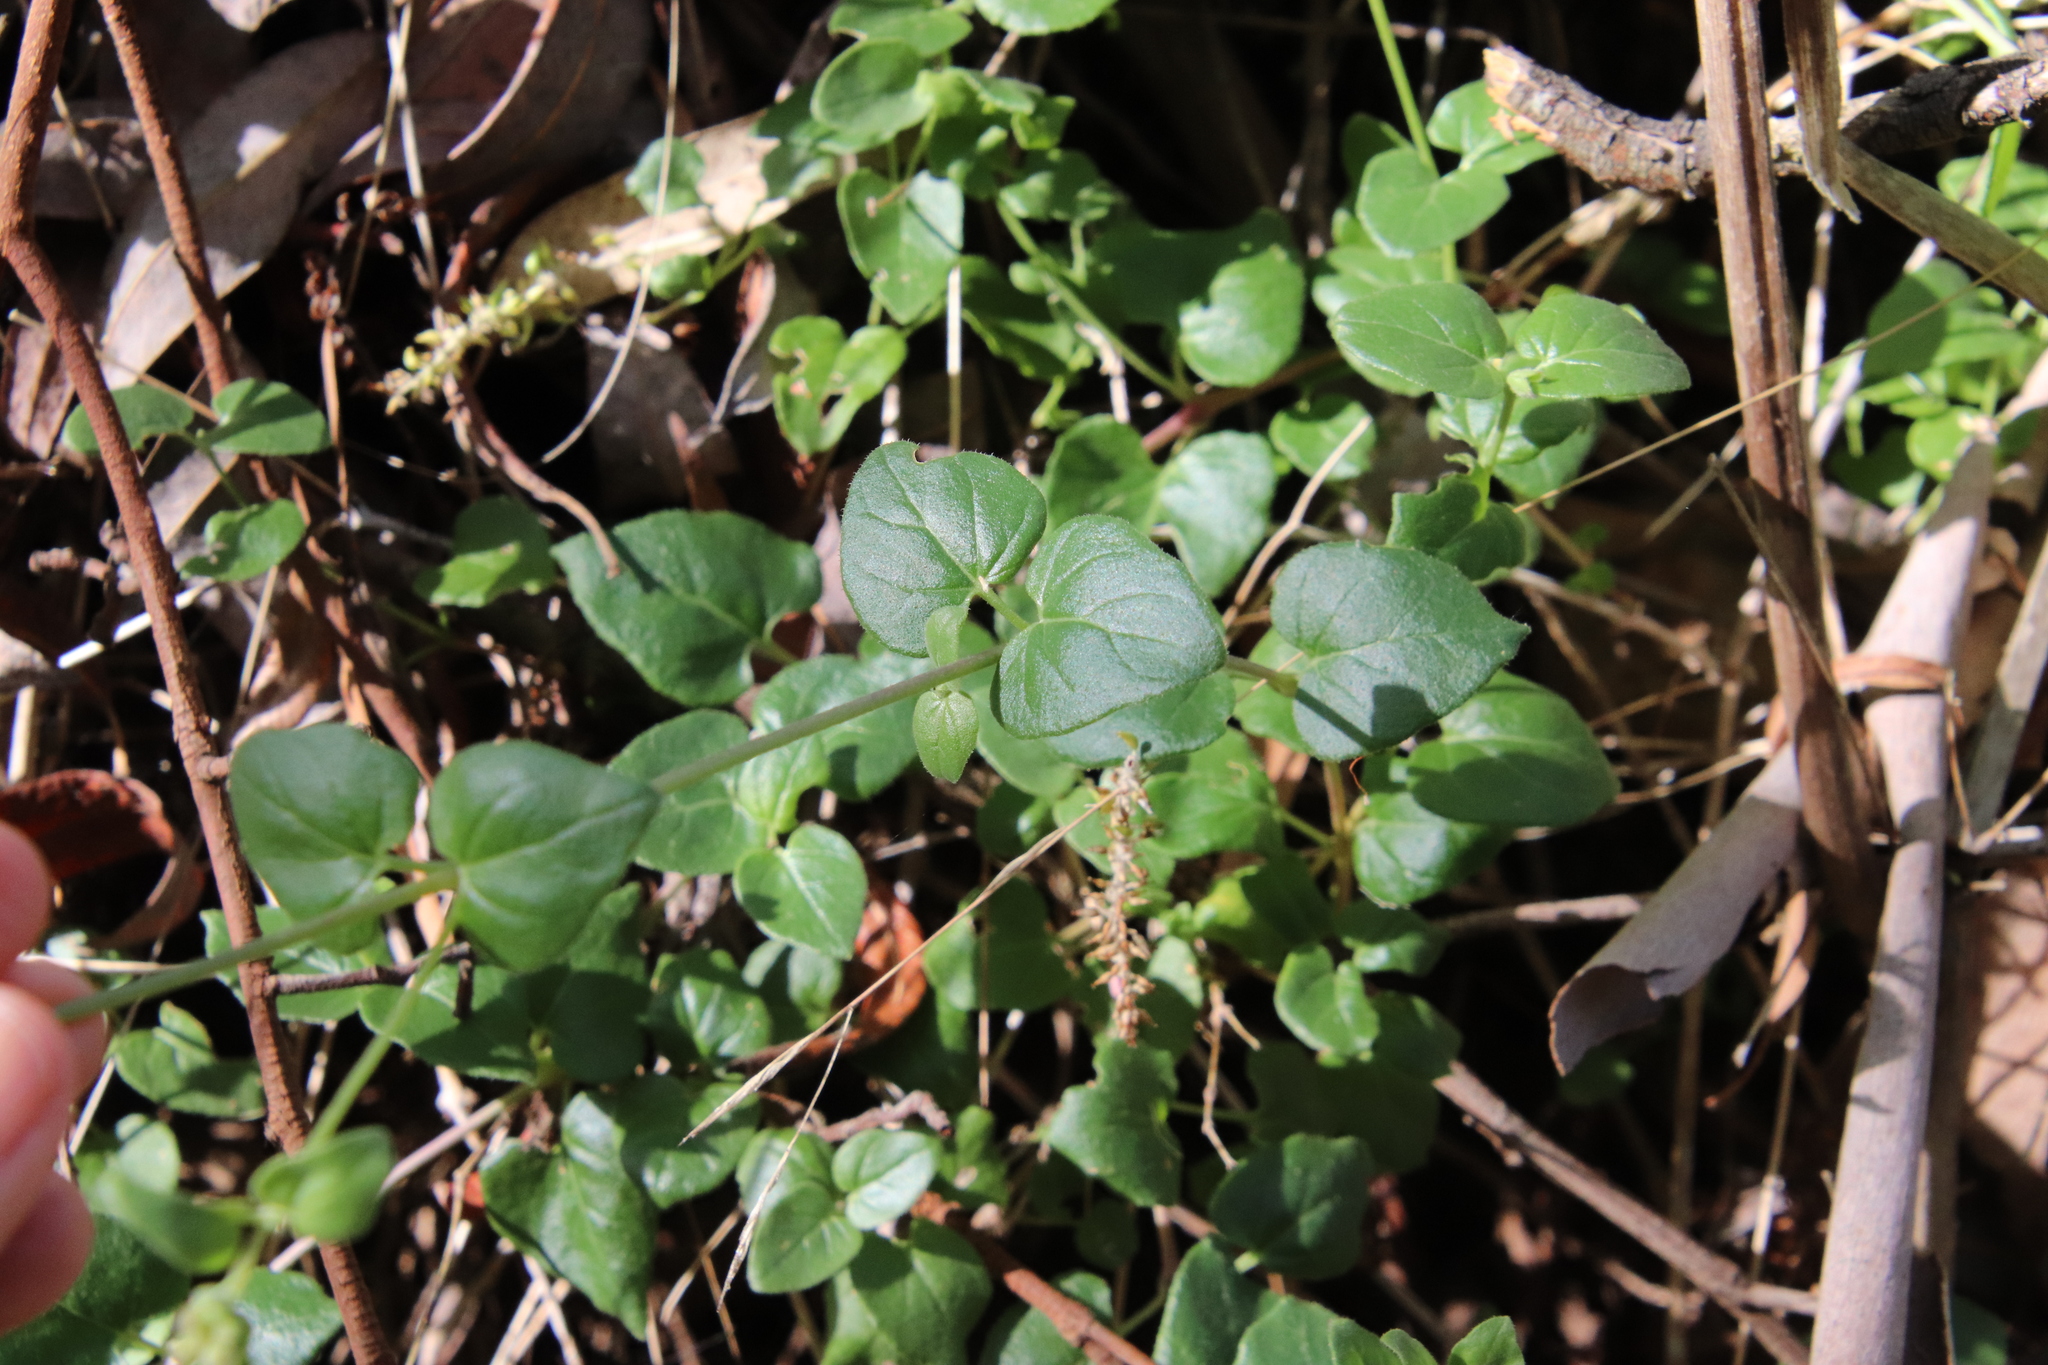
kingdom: Plantae
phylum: Tracheophyta
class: Magnoliopsida
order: Caryophyllales
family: Nyctaginaceae
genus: Mirabilis
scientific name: Mirabilis laevis
